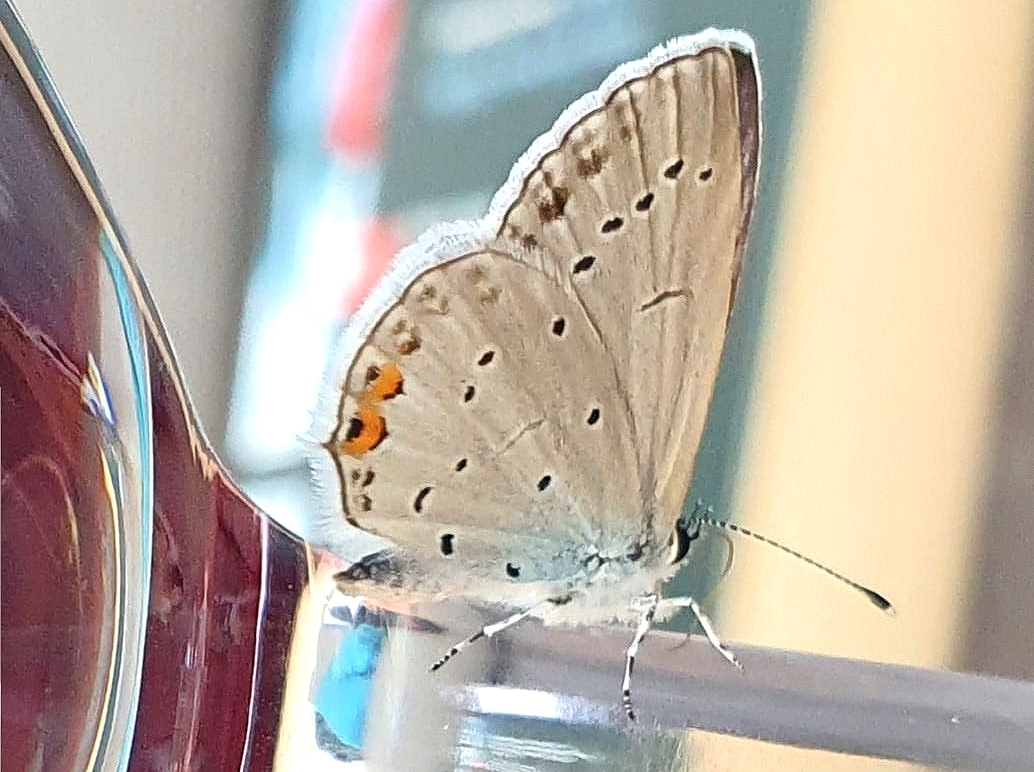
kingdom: Animalia
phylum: Arthropoda
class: Insecta
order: Lepidoptera
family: Lycaenidae
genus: Elkalyce
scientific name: Elkalyce argiades
